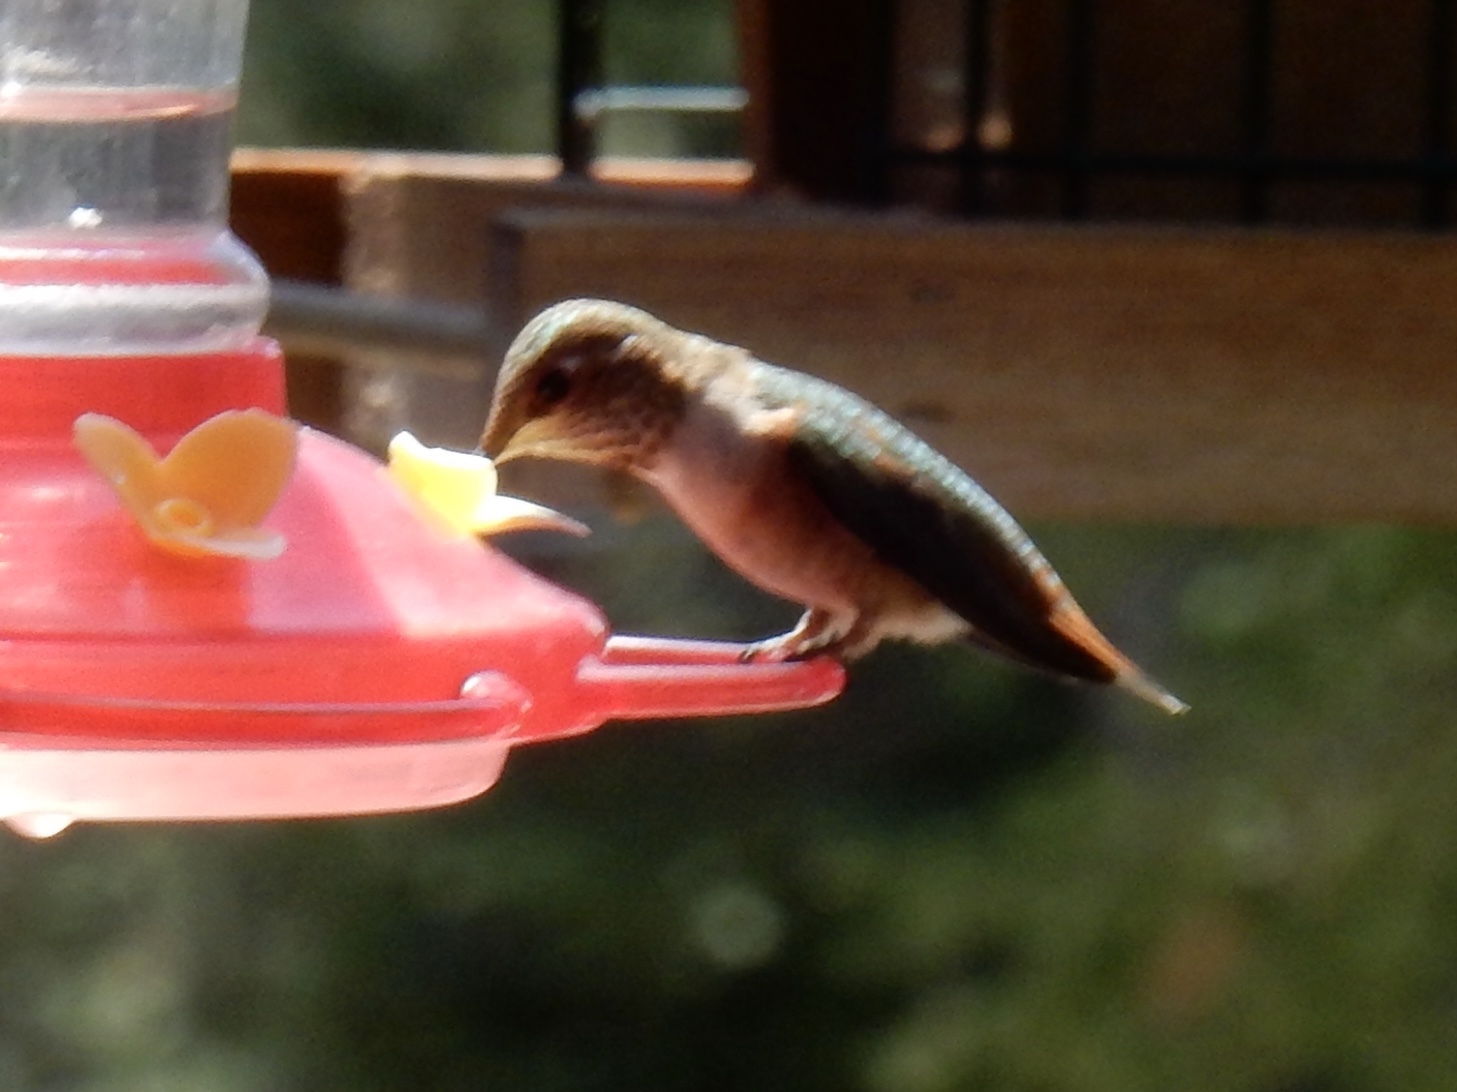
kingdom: Animalia
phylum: Chordata
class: Aves
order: Apodiformes
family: Trochilidae
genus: Selasphorus
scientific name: Selasphorus rufus
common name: Rufous hummingbird
